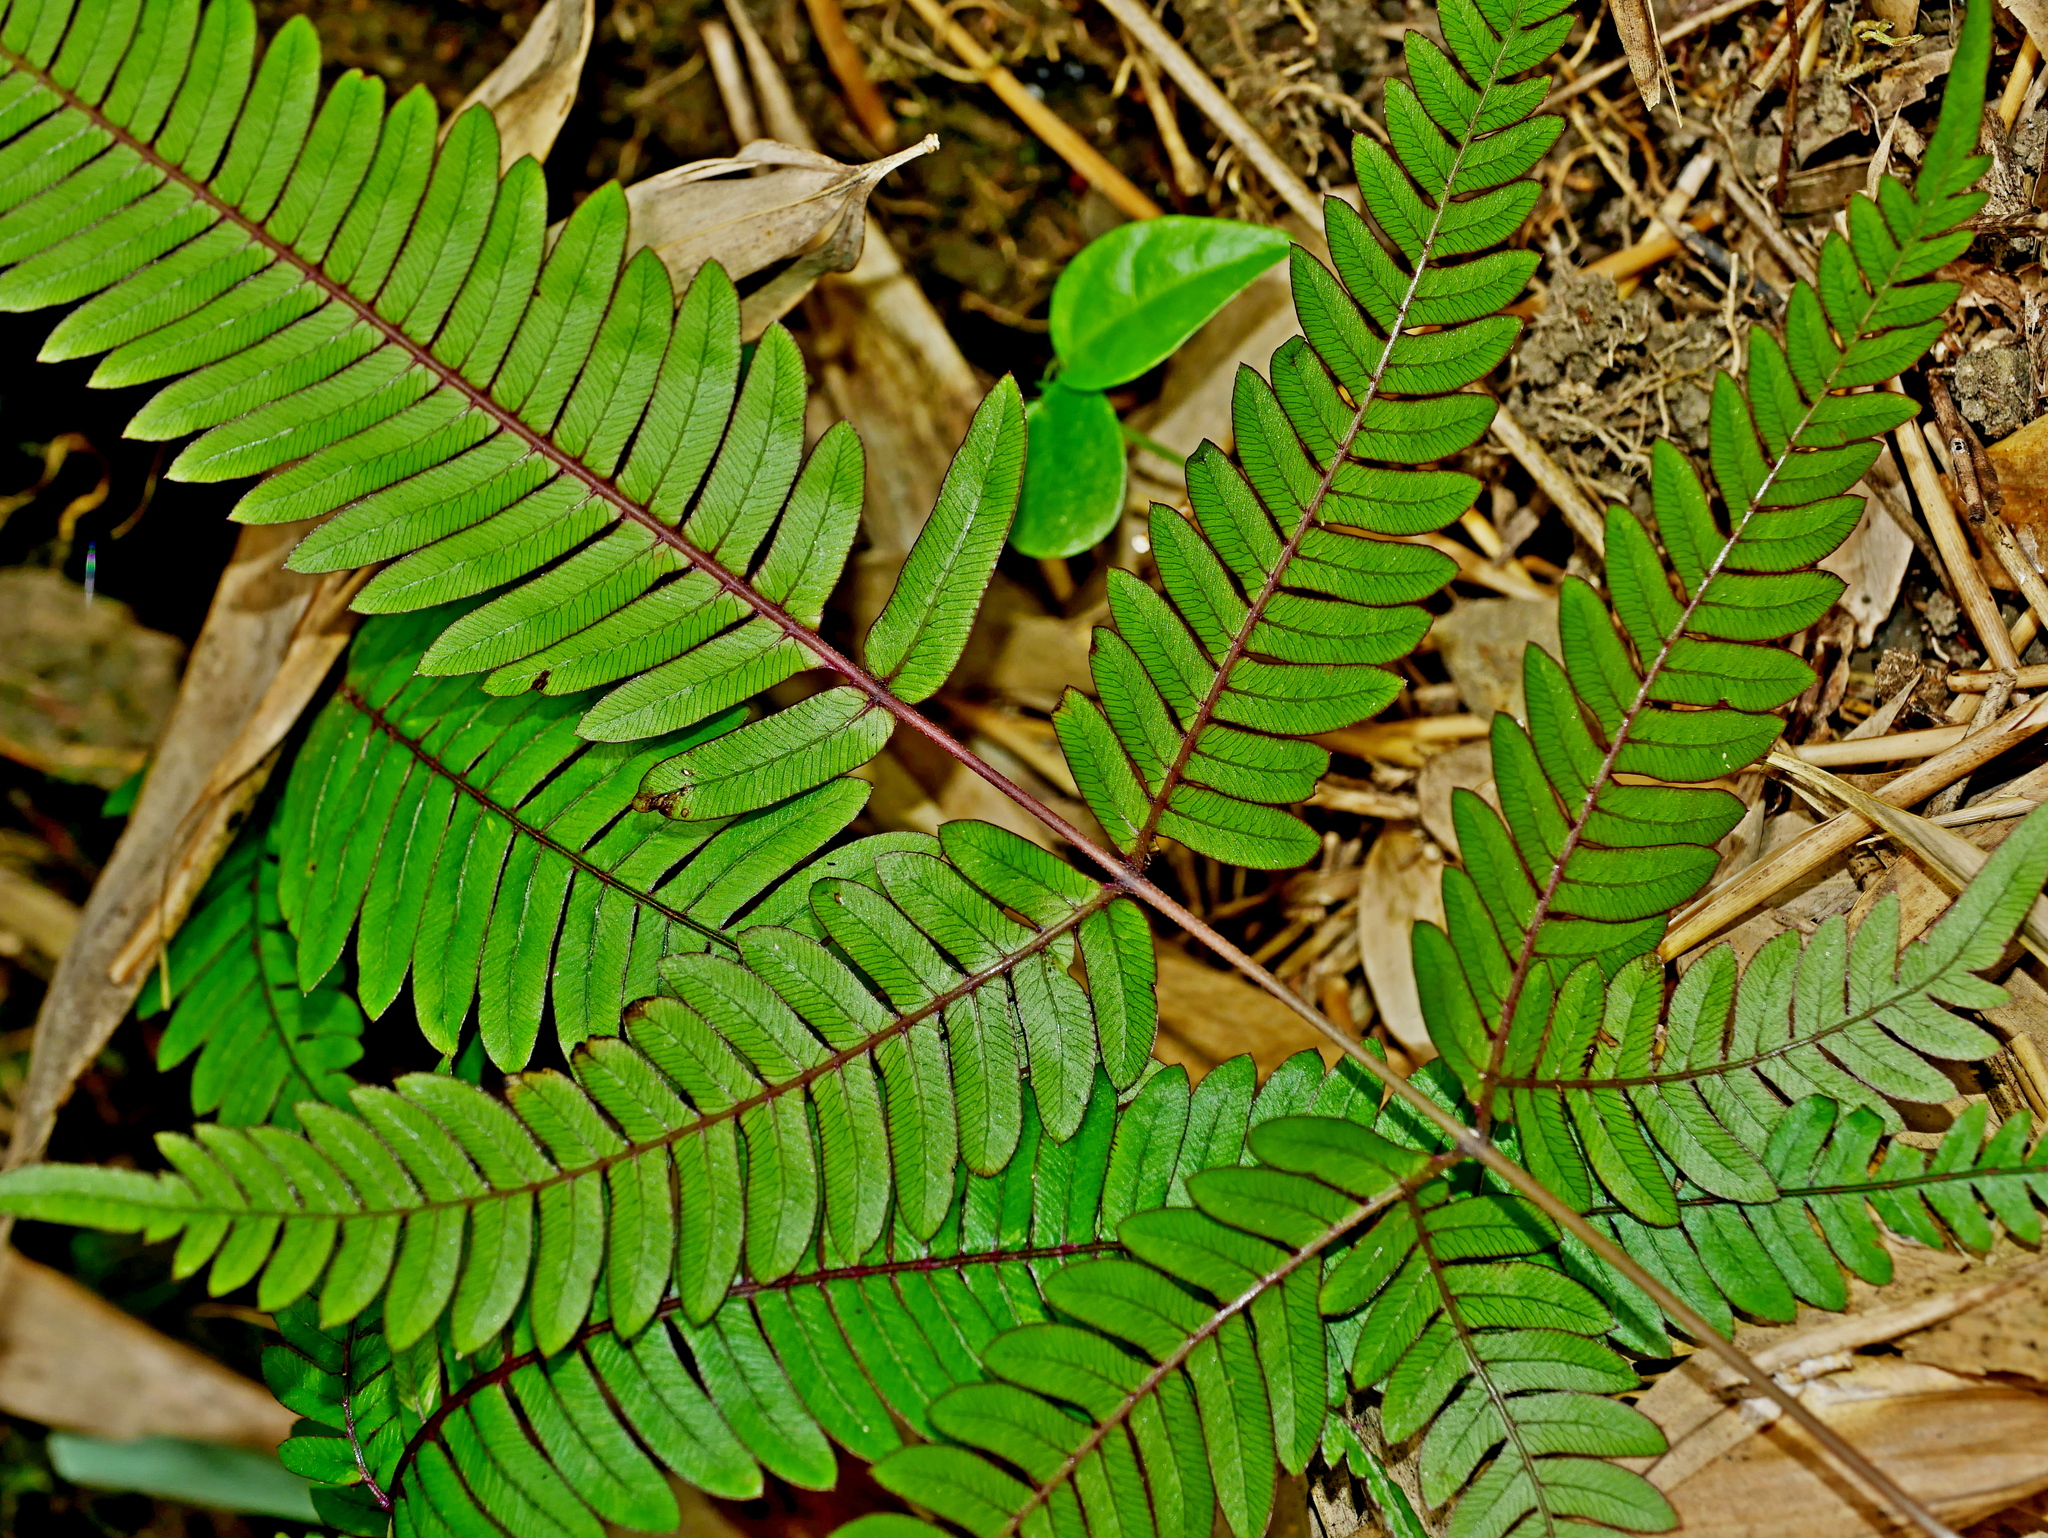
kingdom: Plantae
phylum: Tracheophyta
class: Polypodiopsida
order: Polypodiales
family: Pteridaceae
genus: Pteris
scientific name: Pteris normalis
